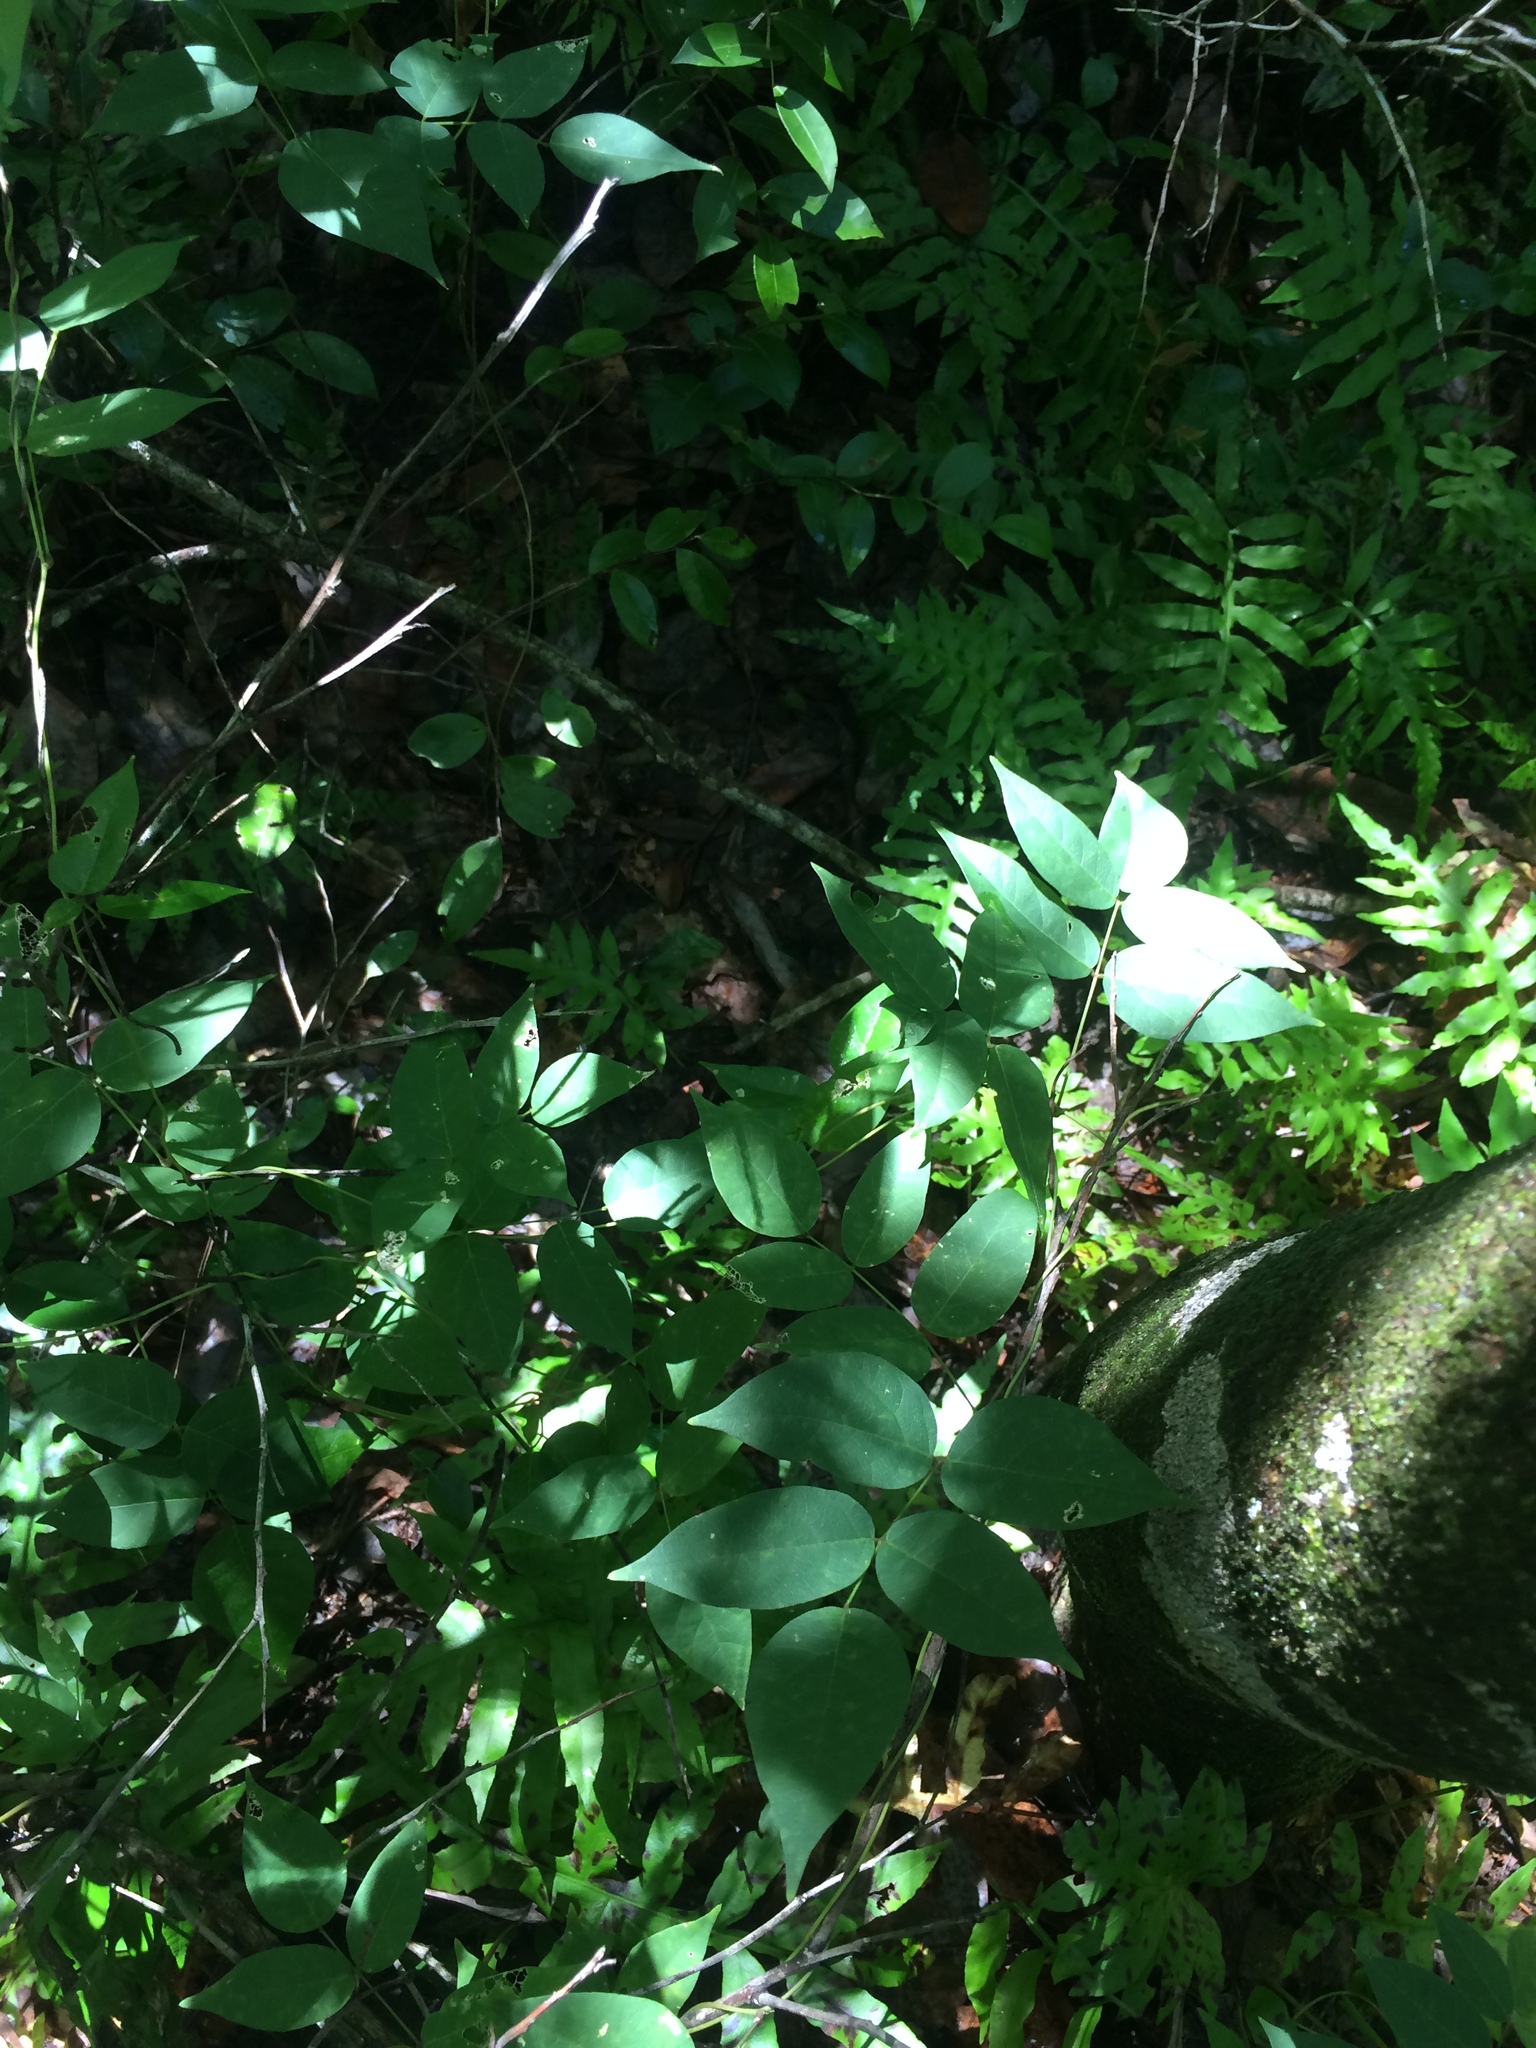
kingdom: Plantae
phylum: Tracheophyta
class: Magnoliopsida
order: Fabales
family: Fabaceae
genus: Apios
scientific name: Apios americana
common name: American potato-bean
